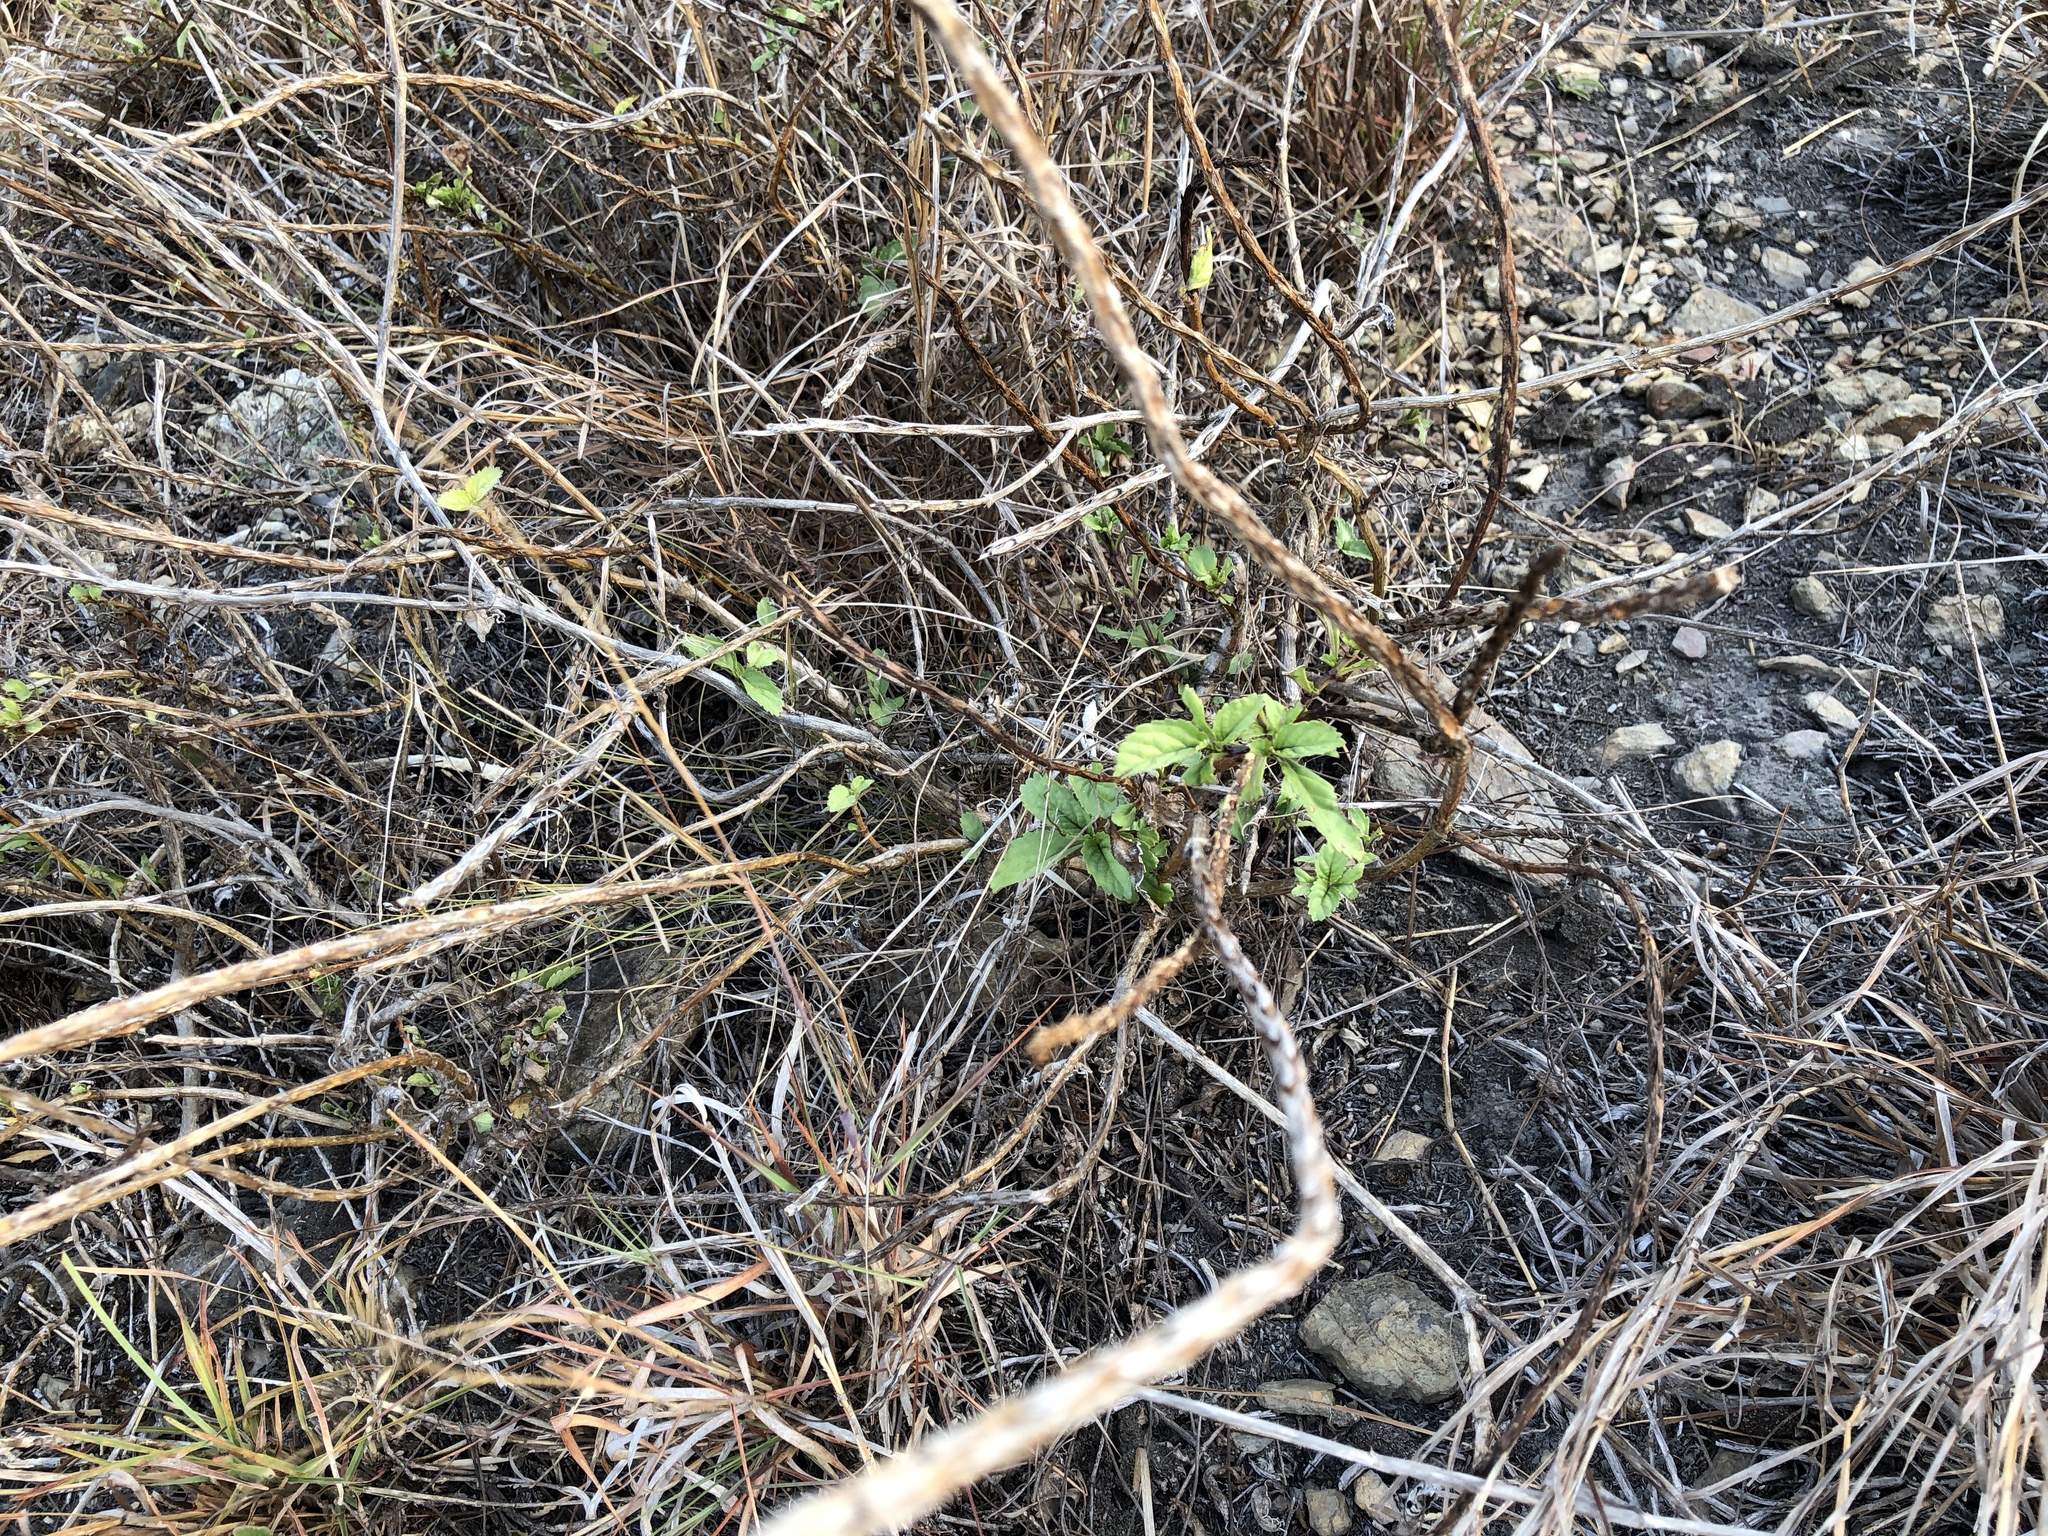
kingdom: Plantae
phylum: Tracheophyta
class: Magnoliopsida
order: Lamiales
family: Verbenaceae
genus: Stachytarpheta
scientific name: Stachytarpheta jamaicensis
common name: Light-blue snakeweed
